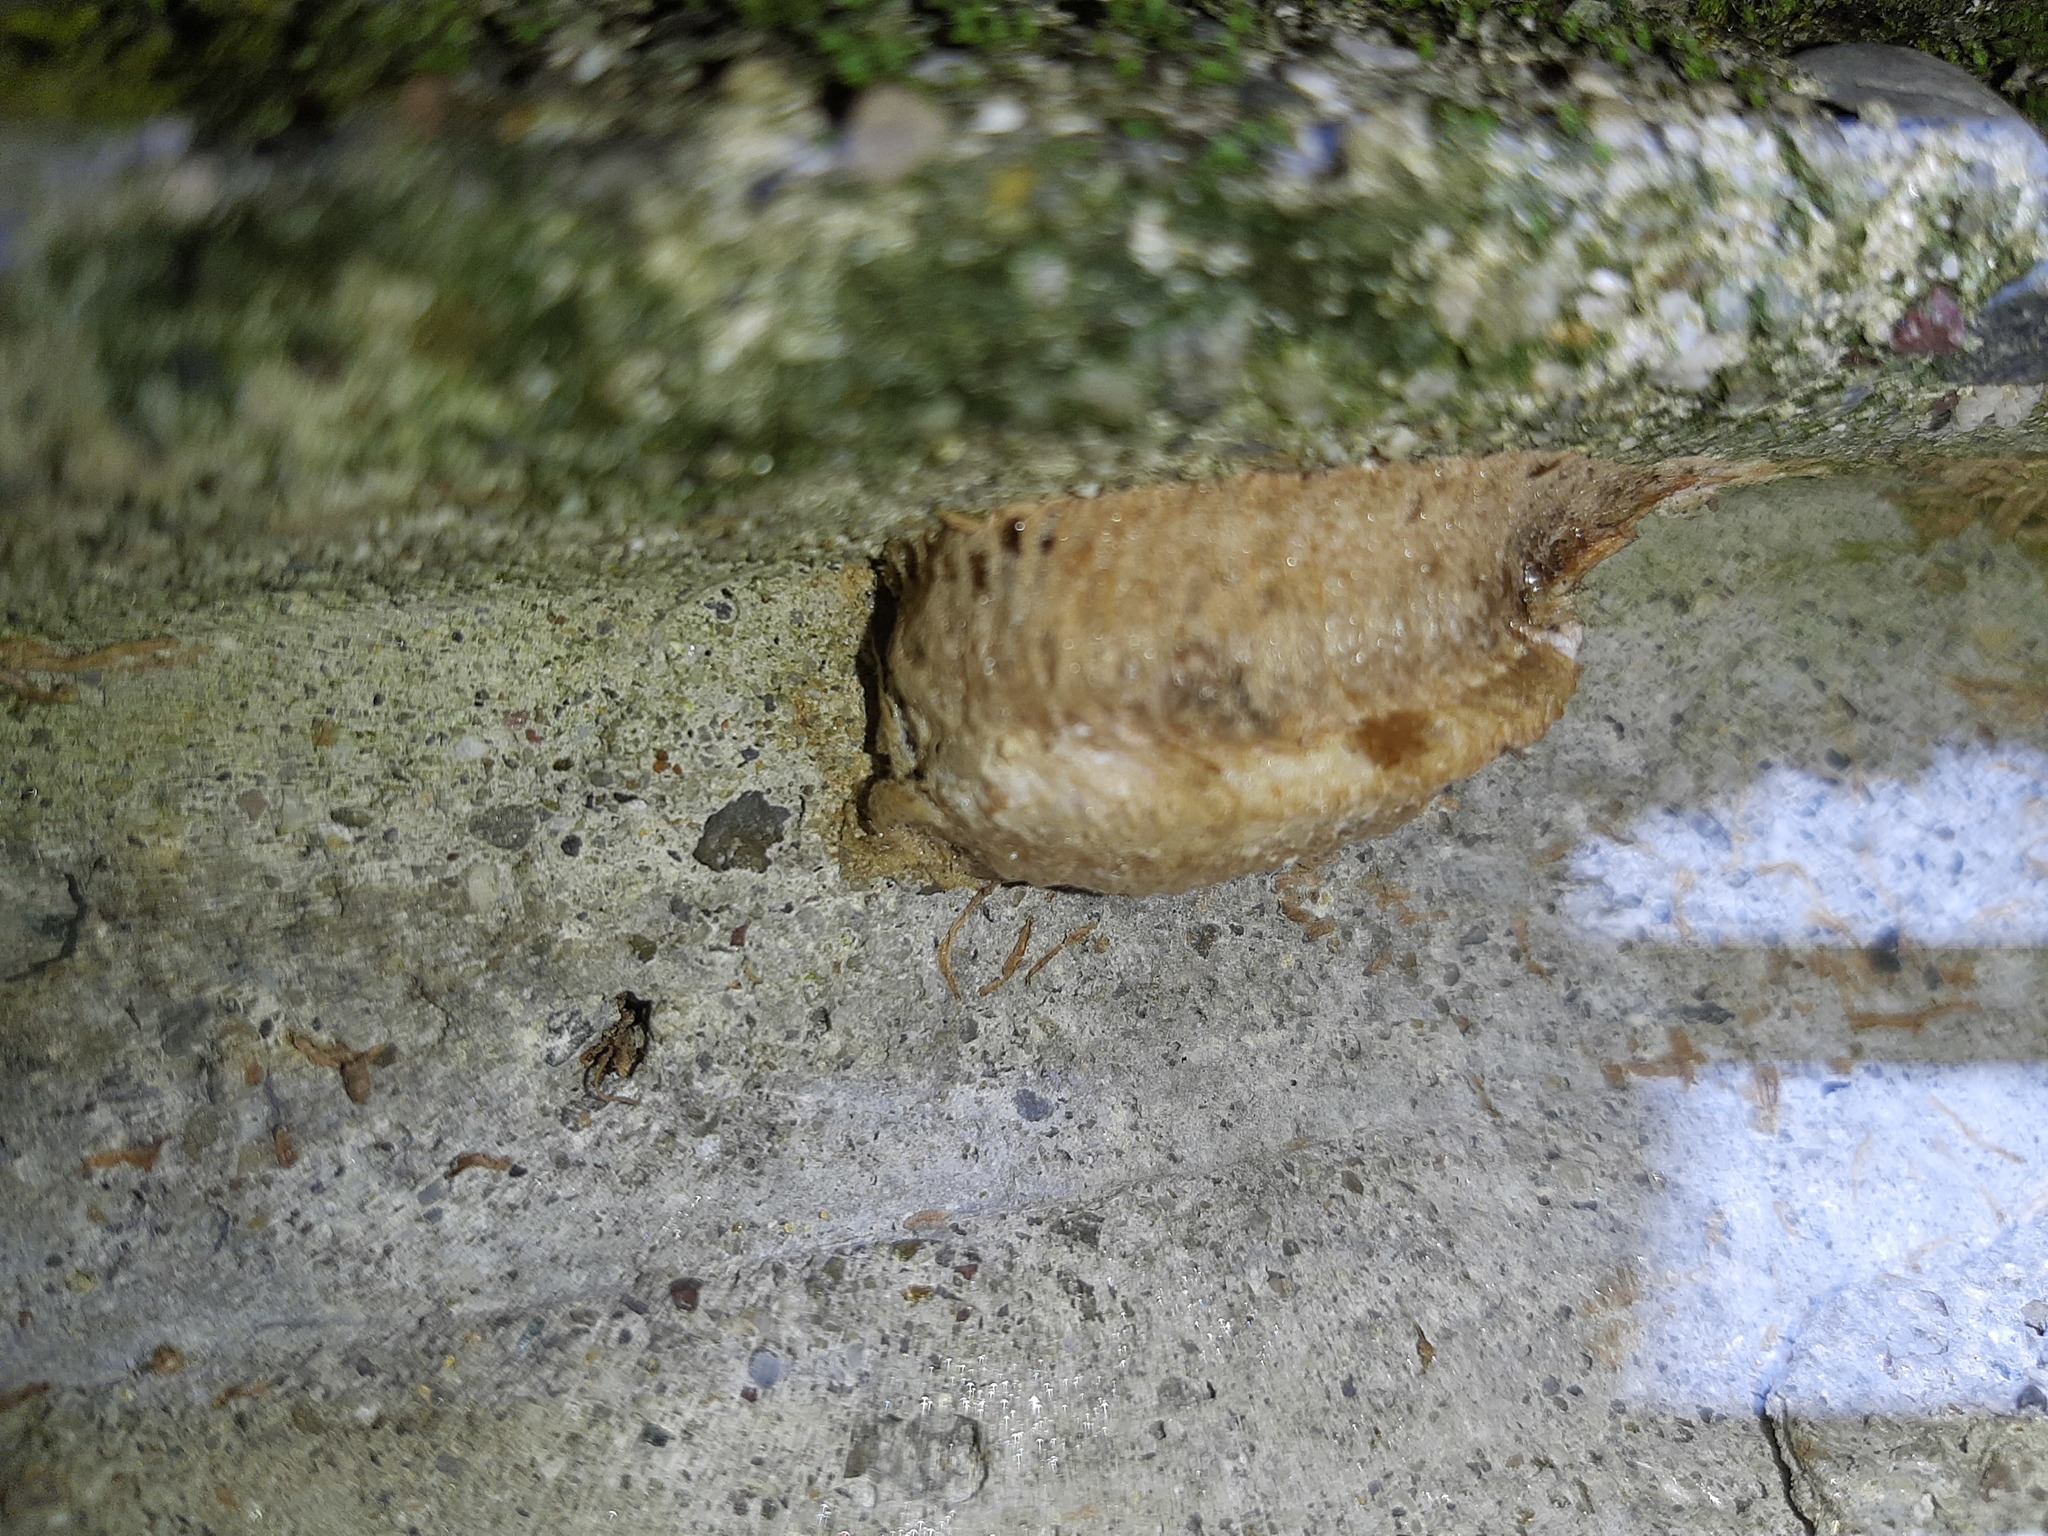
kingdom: Animalia
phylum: Arthropoda
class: Insecta
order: Mantodea
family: Mantidae
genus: Mantis
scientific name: Mantis religiosa
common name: Praying mantis
